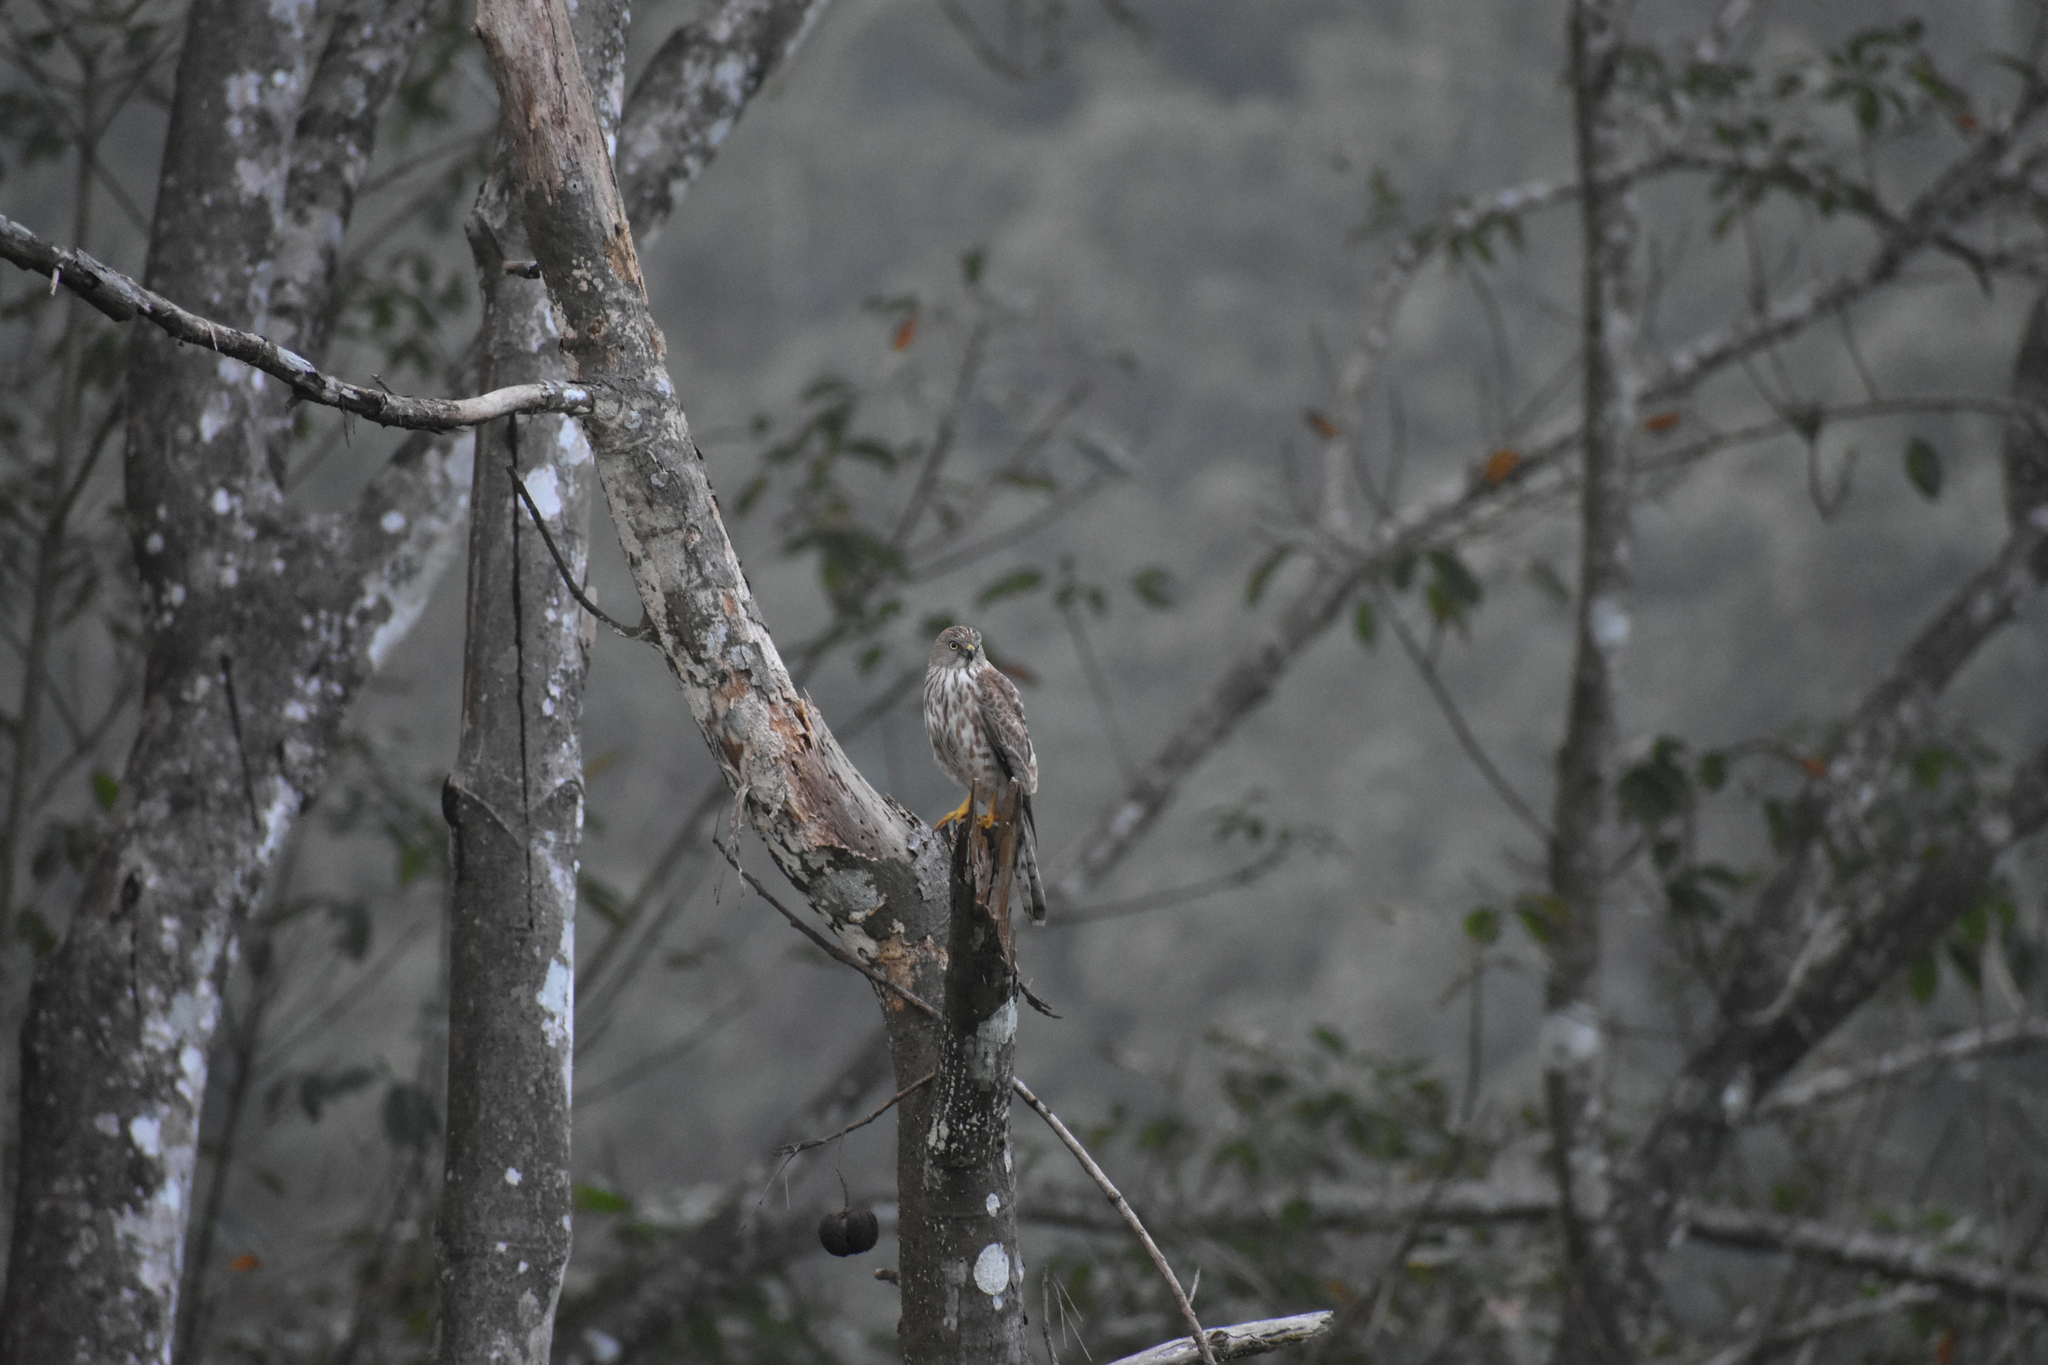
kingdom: Animalia
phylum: Chordata
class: Aves
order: Accipitriformes
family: Accipitridae
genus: Accipiter
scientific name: Accipiter badius
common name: Shikra
